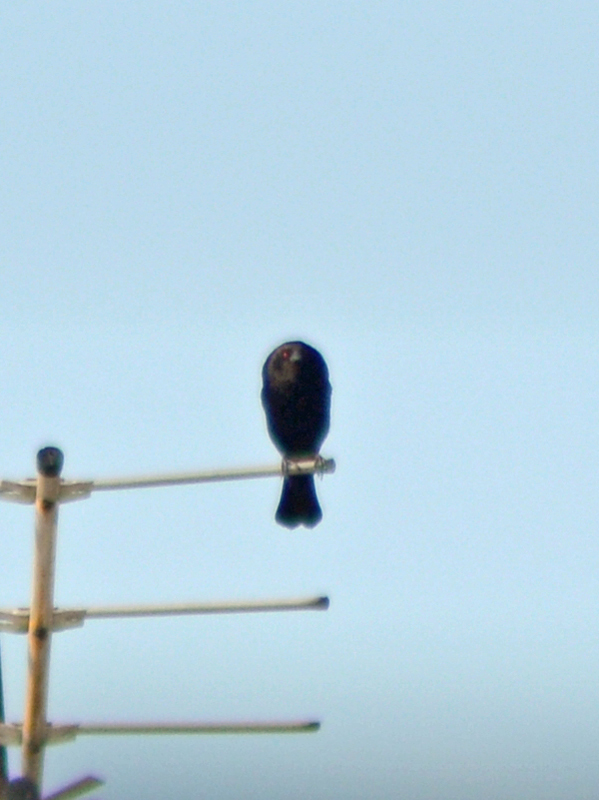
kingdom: Animalia
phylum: Chordata
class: Aves
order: Passeriformes
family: Icteridae
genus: Molothrus
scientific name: Molothrus aeneus
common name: Bronzed cowbird
